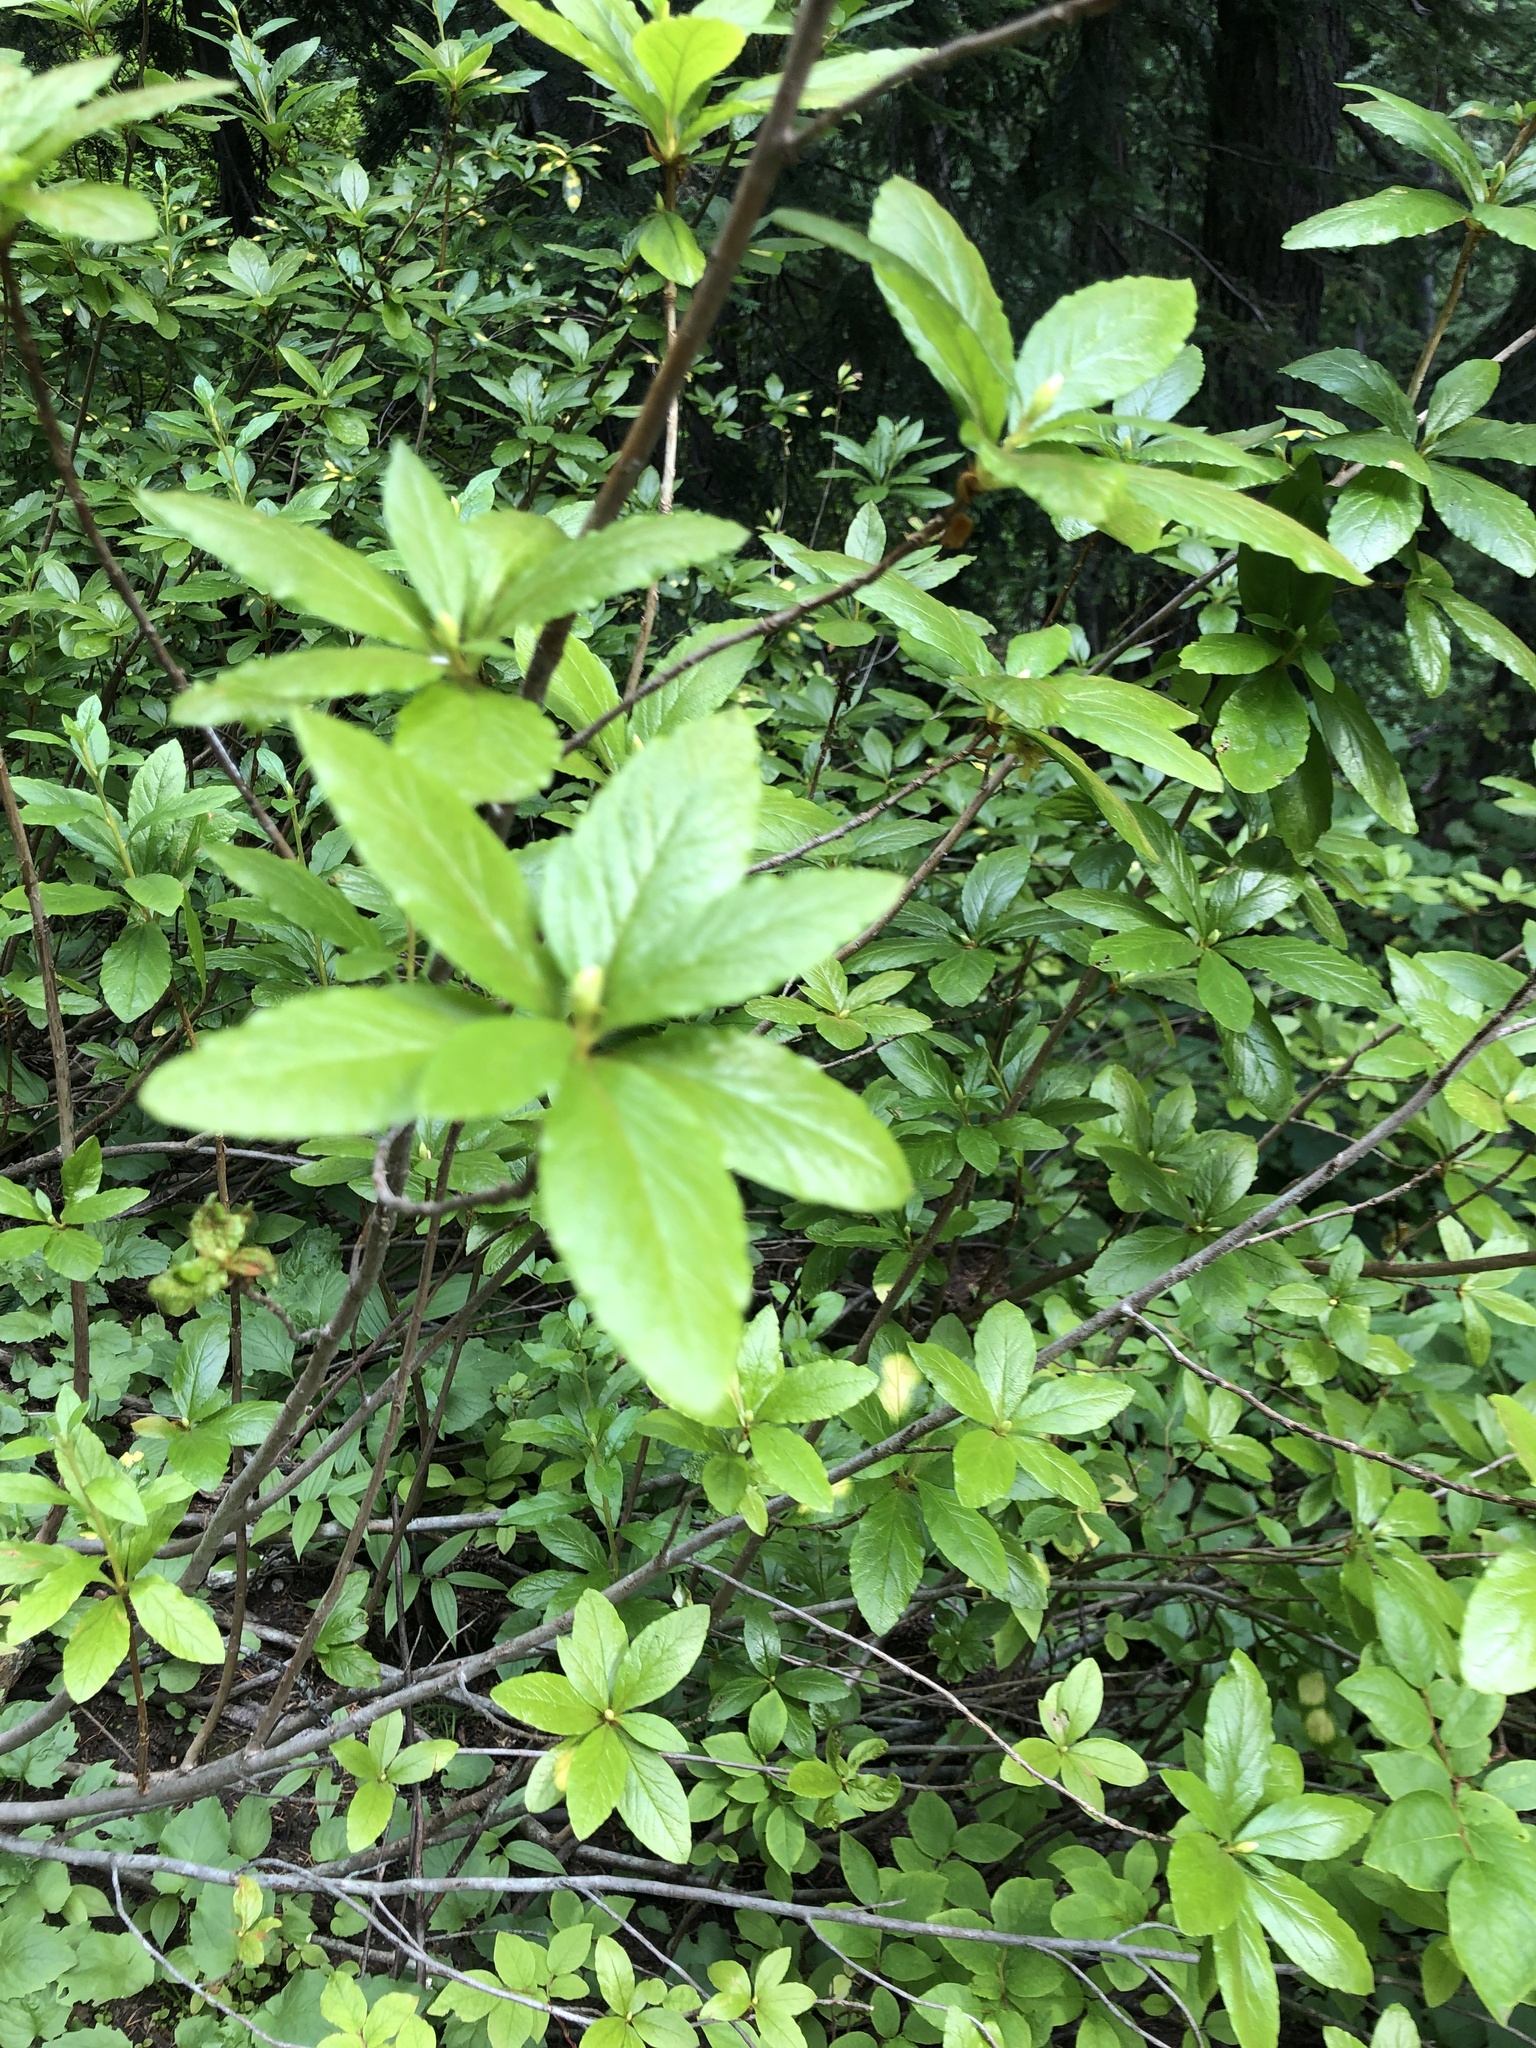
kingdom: Plantae
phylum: Tracheophyta
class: Magnoliopsida
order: Ericales
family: Ericaceae
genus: Rhododendron
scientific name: Rhododendron albiflorum
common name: White rhododendron
